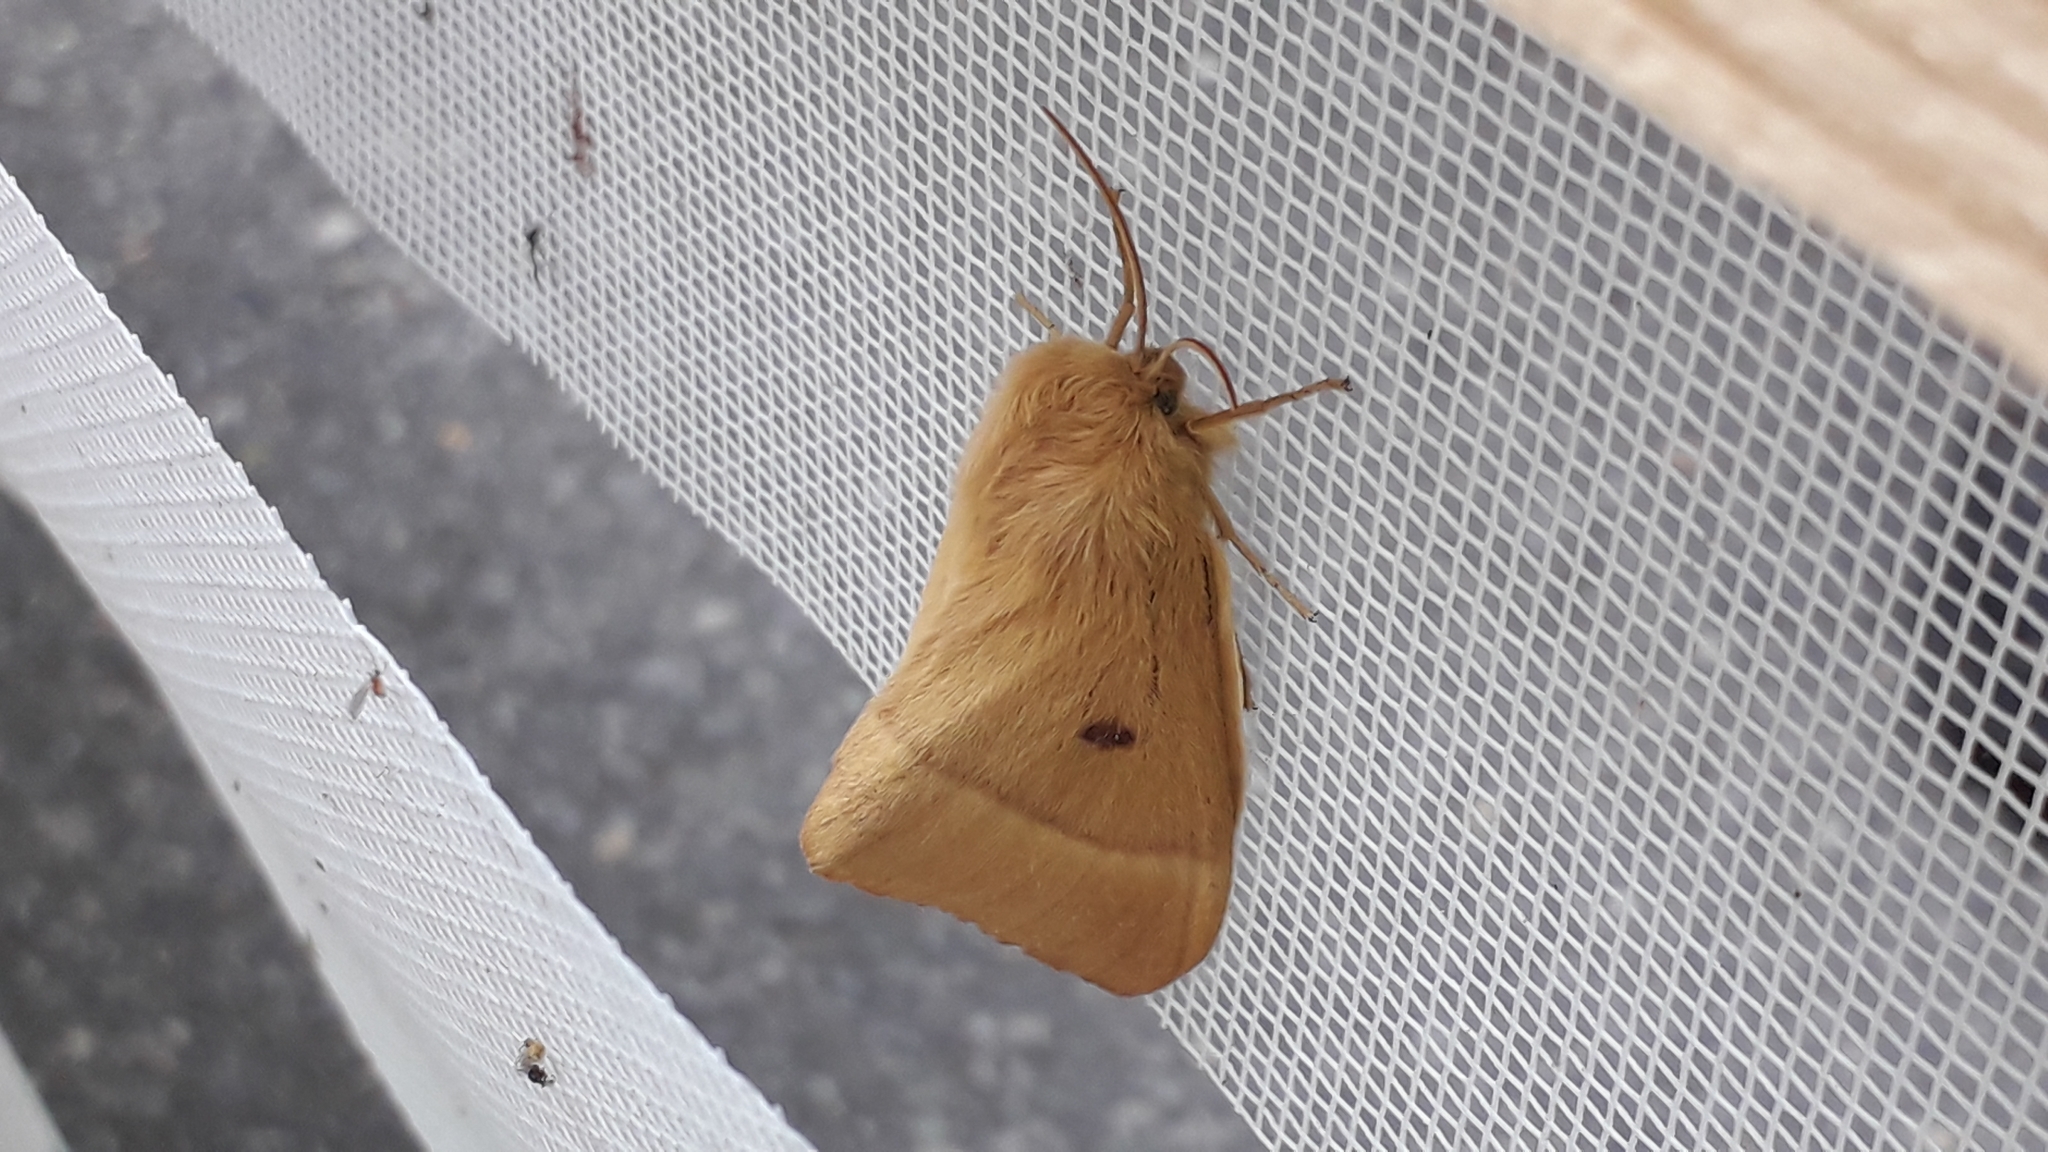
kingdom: Animalia
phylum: Arthropoda
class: Insecta
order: Lepidoptera
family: Lasiocampidae
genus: Lasiocampa
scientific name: Lasiocampa quercus
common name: Oak eggar
